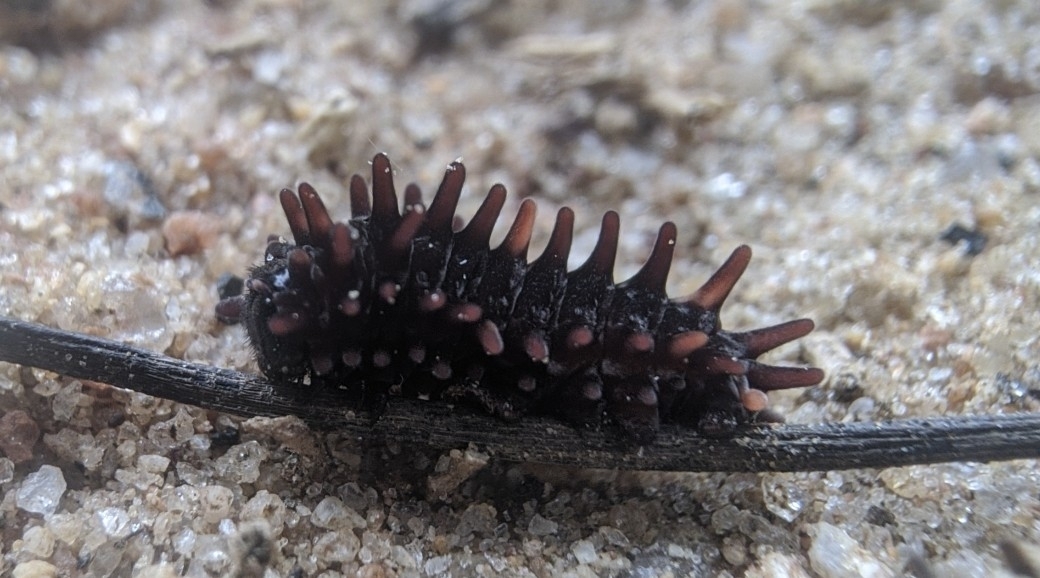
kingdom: Animalia
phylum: Arthropoda
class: Insecta
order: Lepidoptera
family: Papilionidae
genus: Pachliopta
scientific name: Pachliopta hector
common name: Crimson rose
